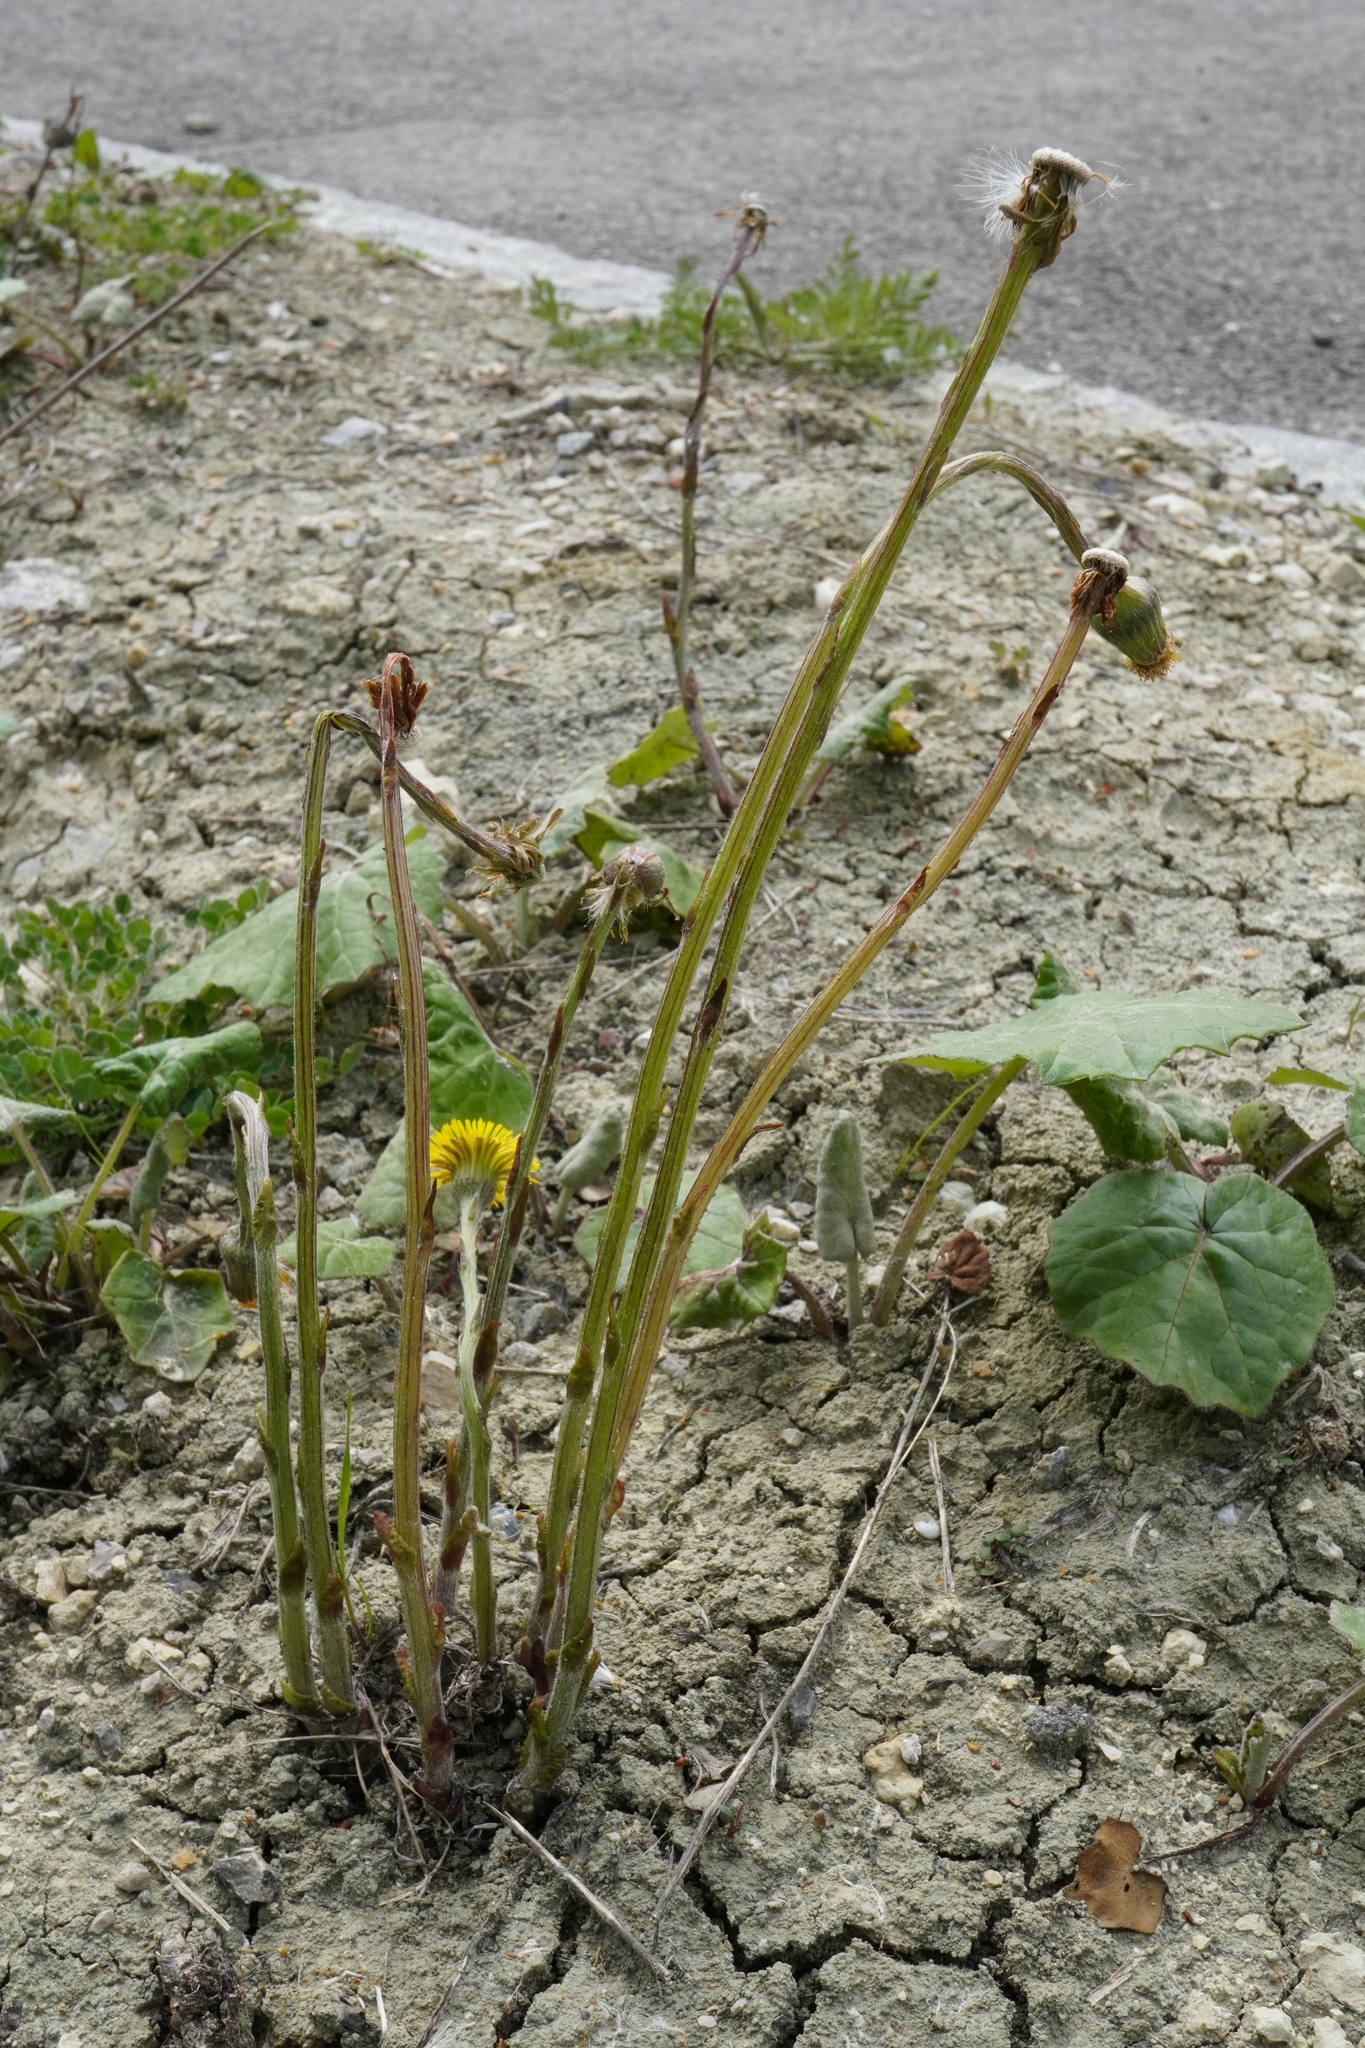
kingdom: Plantae
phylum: Tracheophyta
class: Magnoliopsida
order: Asterales
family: Asteraceae
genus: Tussilago
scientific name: Tussilago farfara
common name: Coltsfoot
